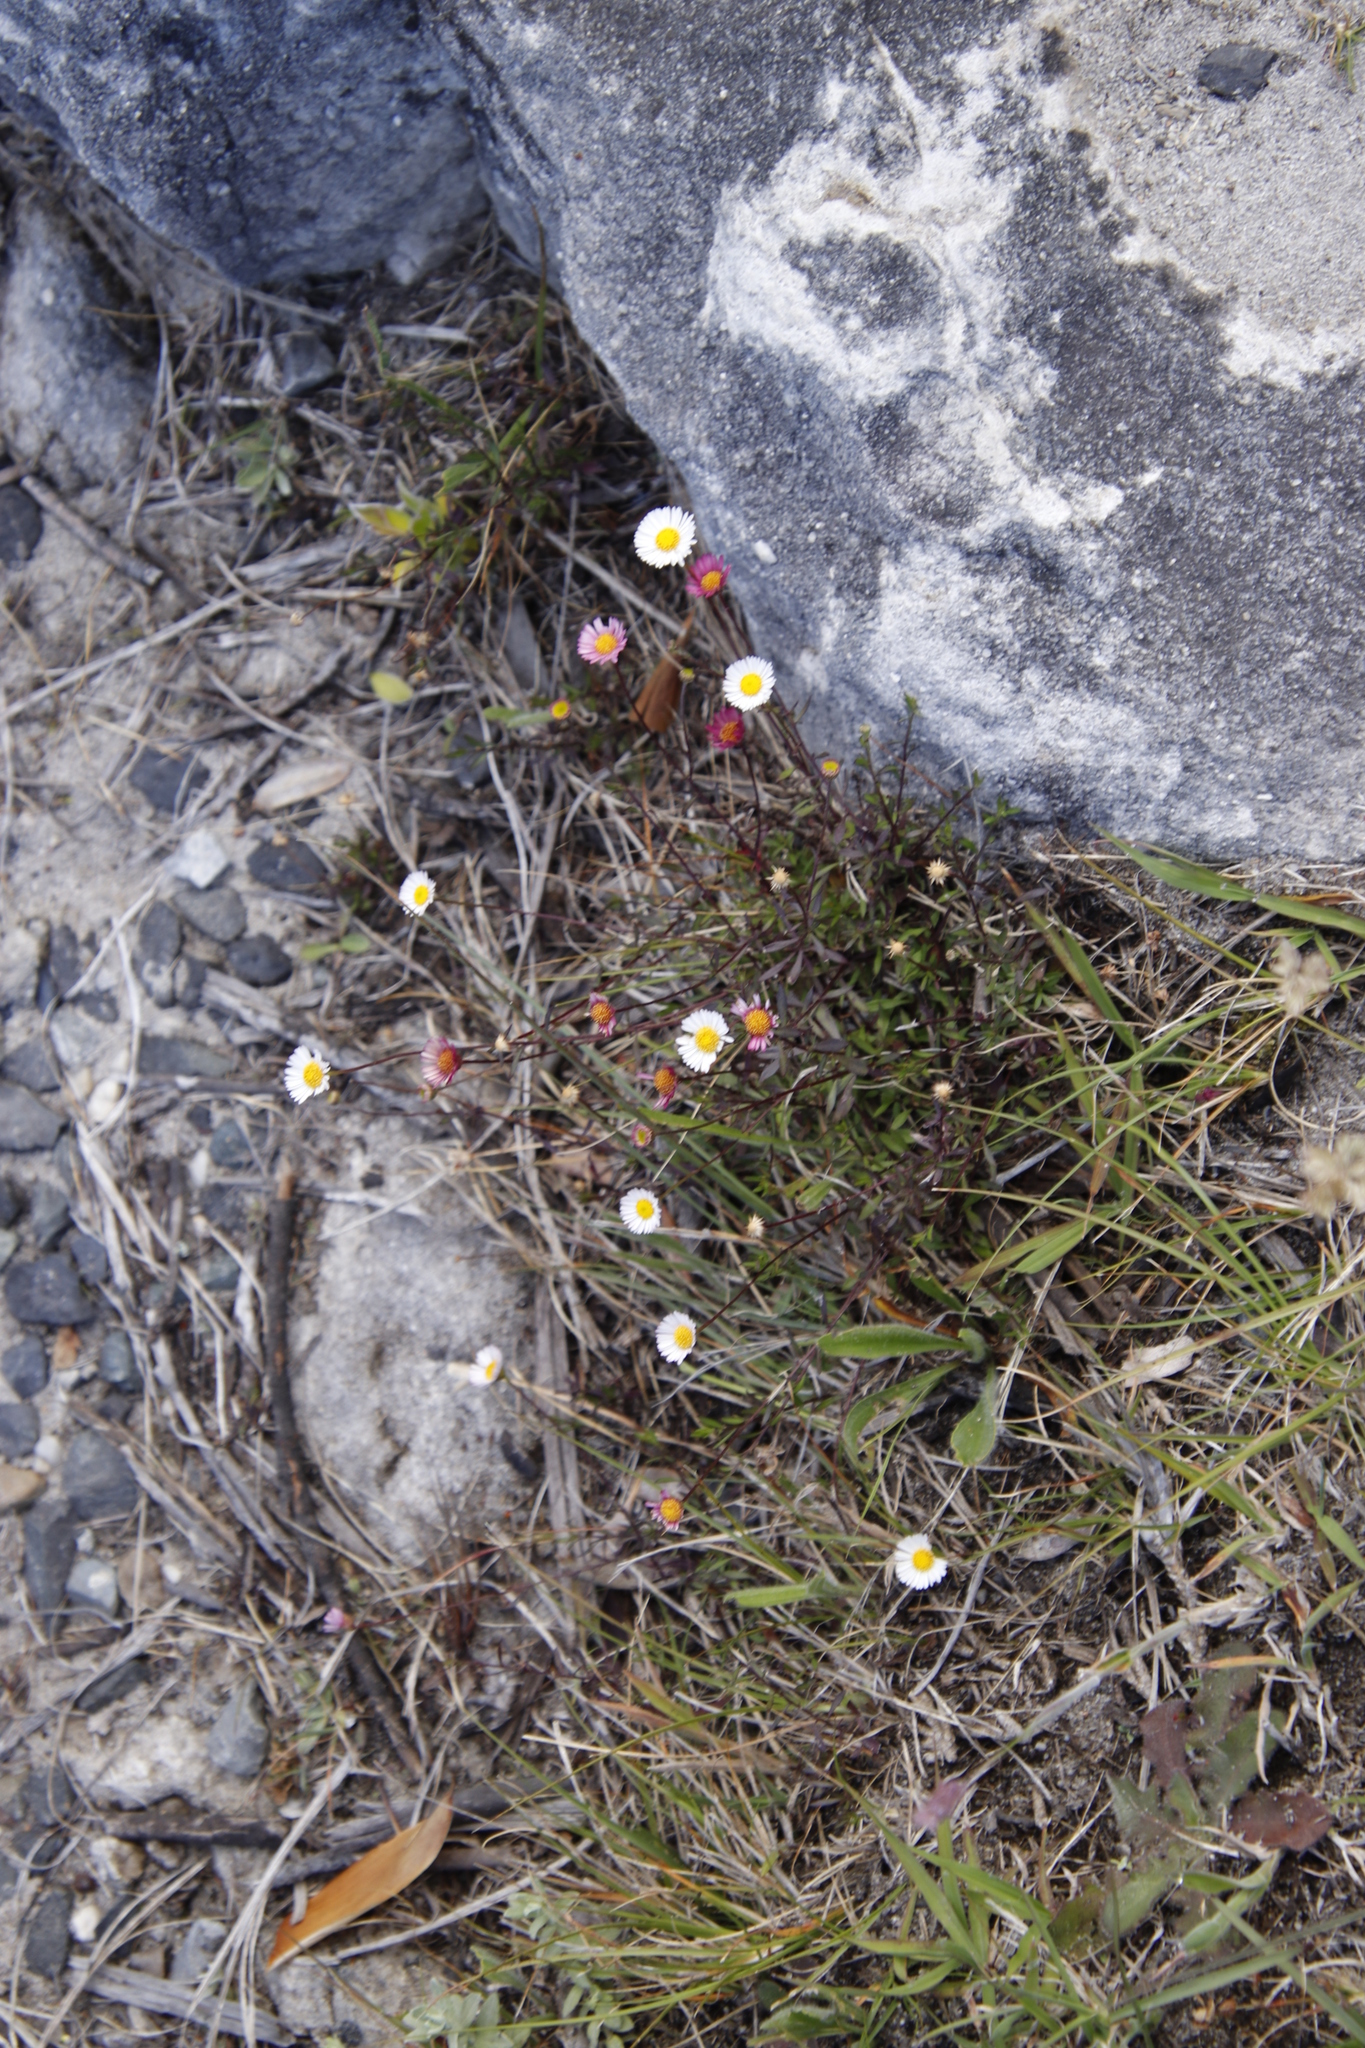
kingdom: Plantae
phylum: Tracheophyta
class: Magnoliopsida
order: Asterales
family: Asteraceae
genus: Erigeron
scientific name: Erigeron karvinskianus
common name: Mexican fleabane
